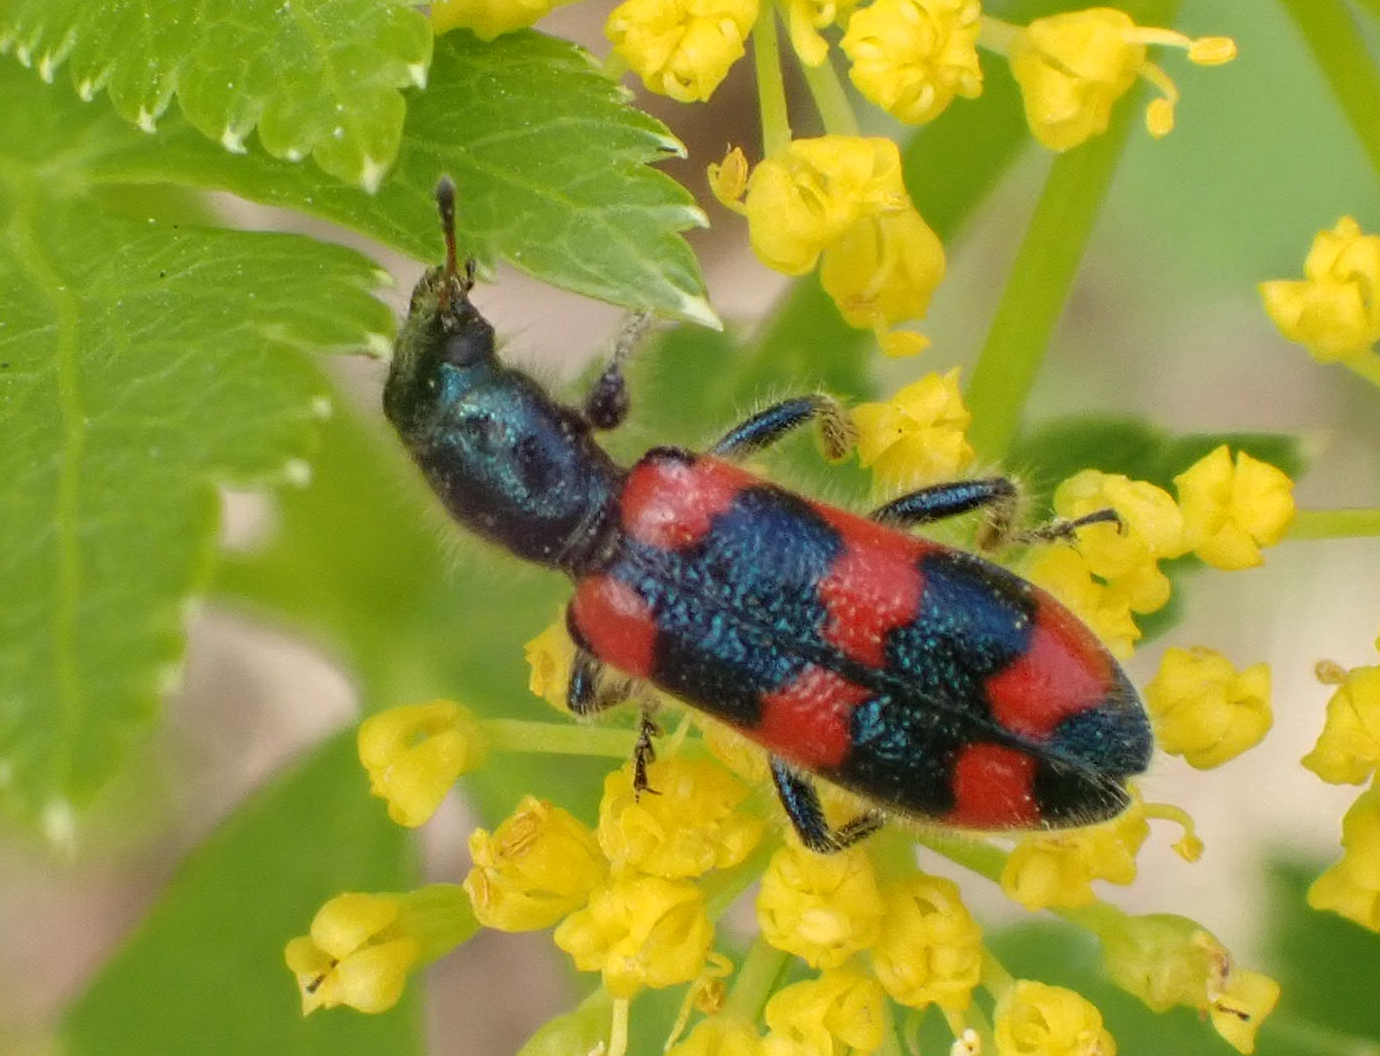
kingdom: Animalia
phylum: Arthropoda
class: Insecta
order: Coleoptera
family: Cleridae
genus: Trichodes
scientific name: Trichodes nutalli
